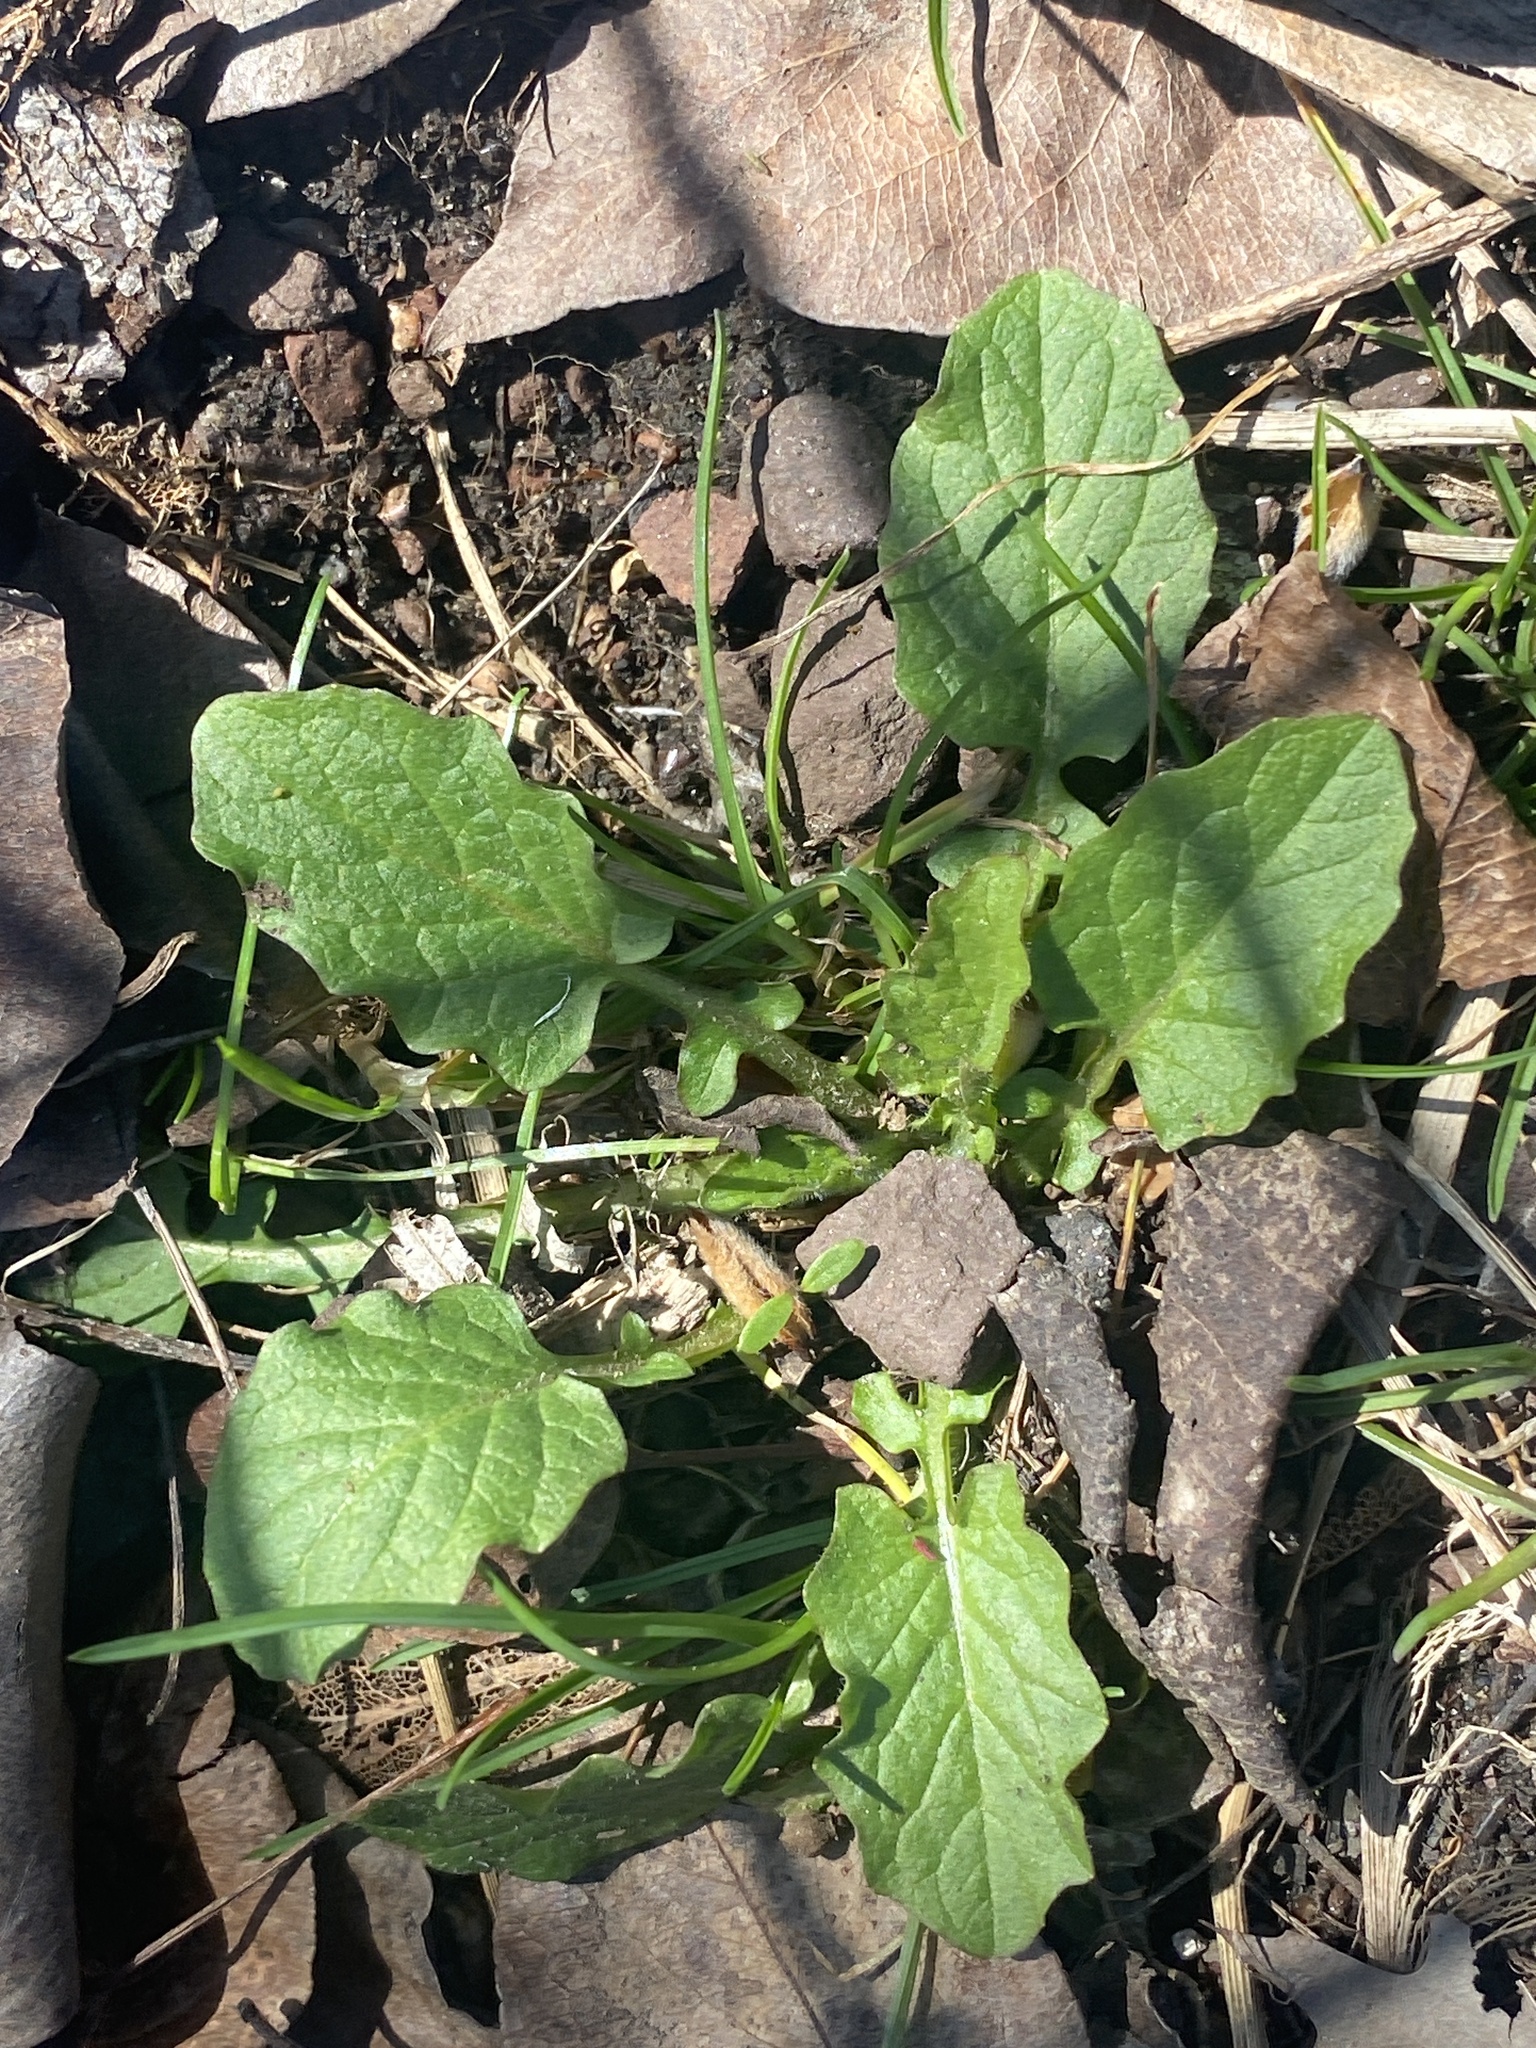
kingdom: Plantae
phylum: Tracheophyta
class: Magnoliopsida
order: Asterales
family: Asteraceae
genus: Lapsana
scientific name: Lapsana communis
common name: Nipplewort
